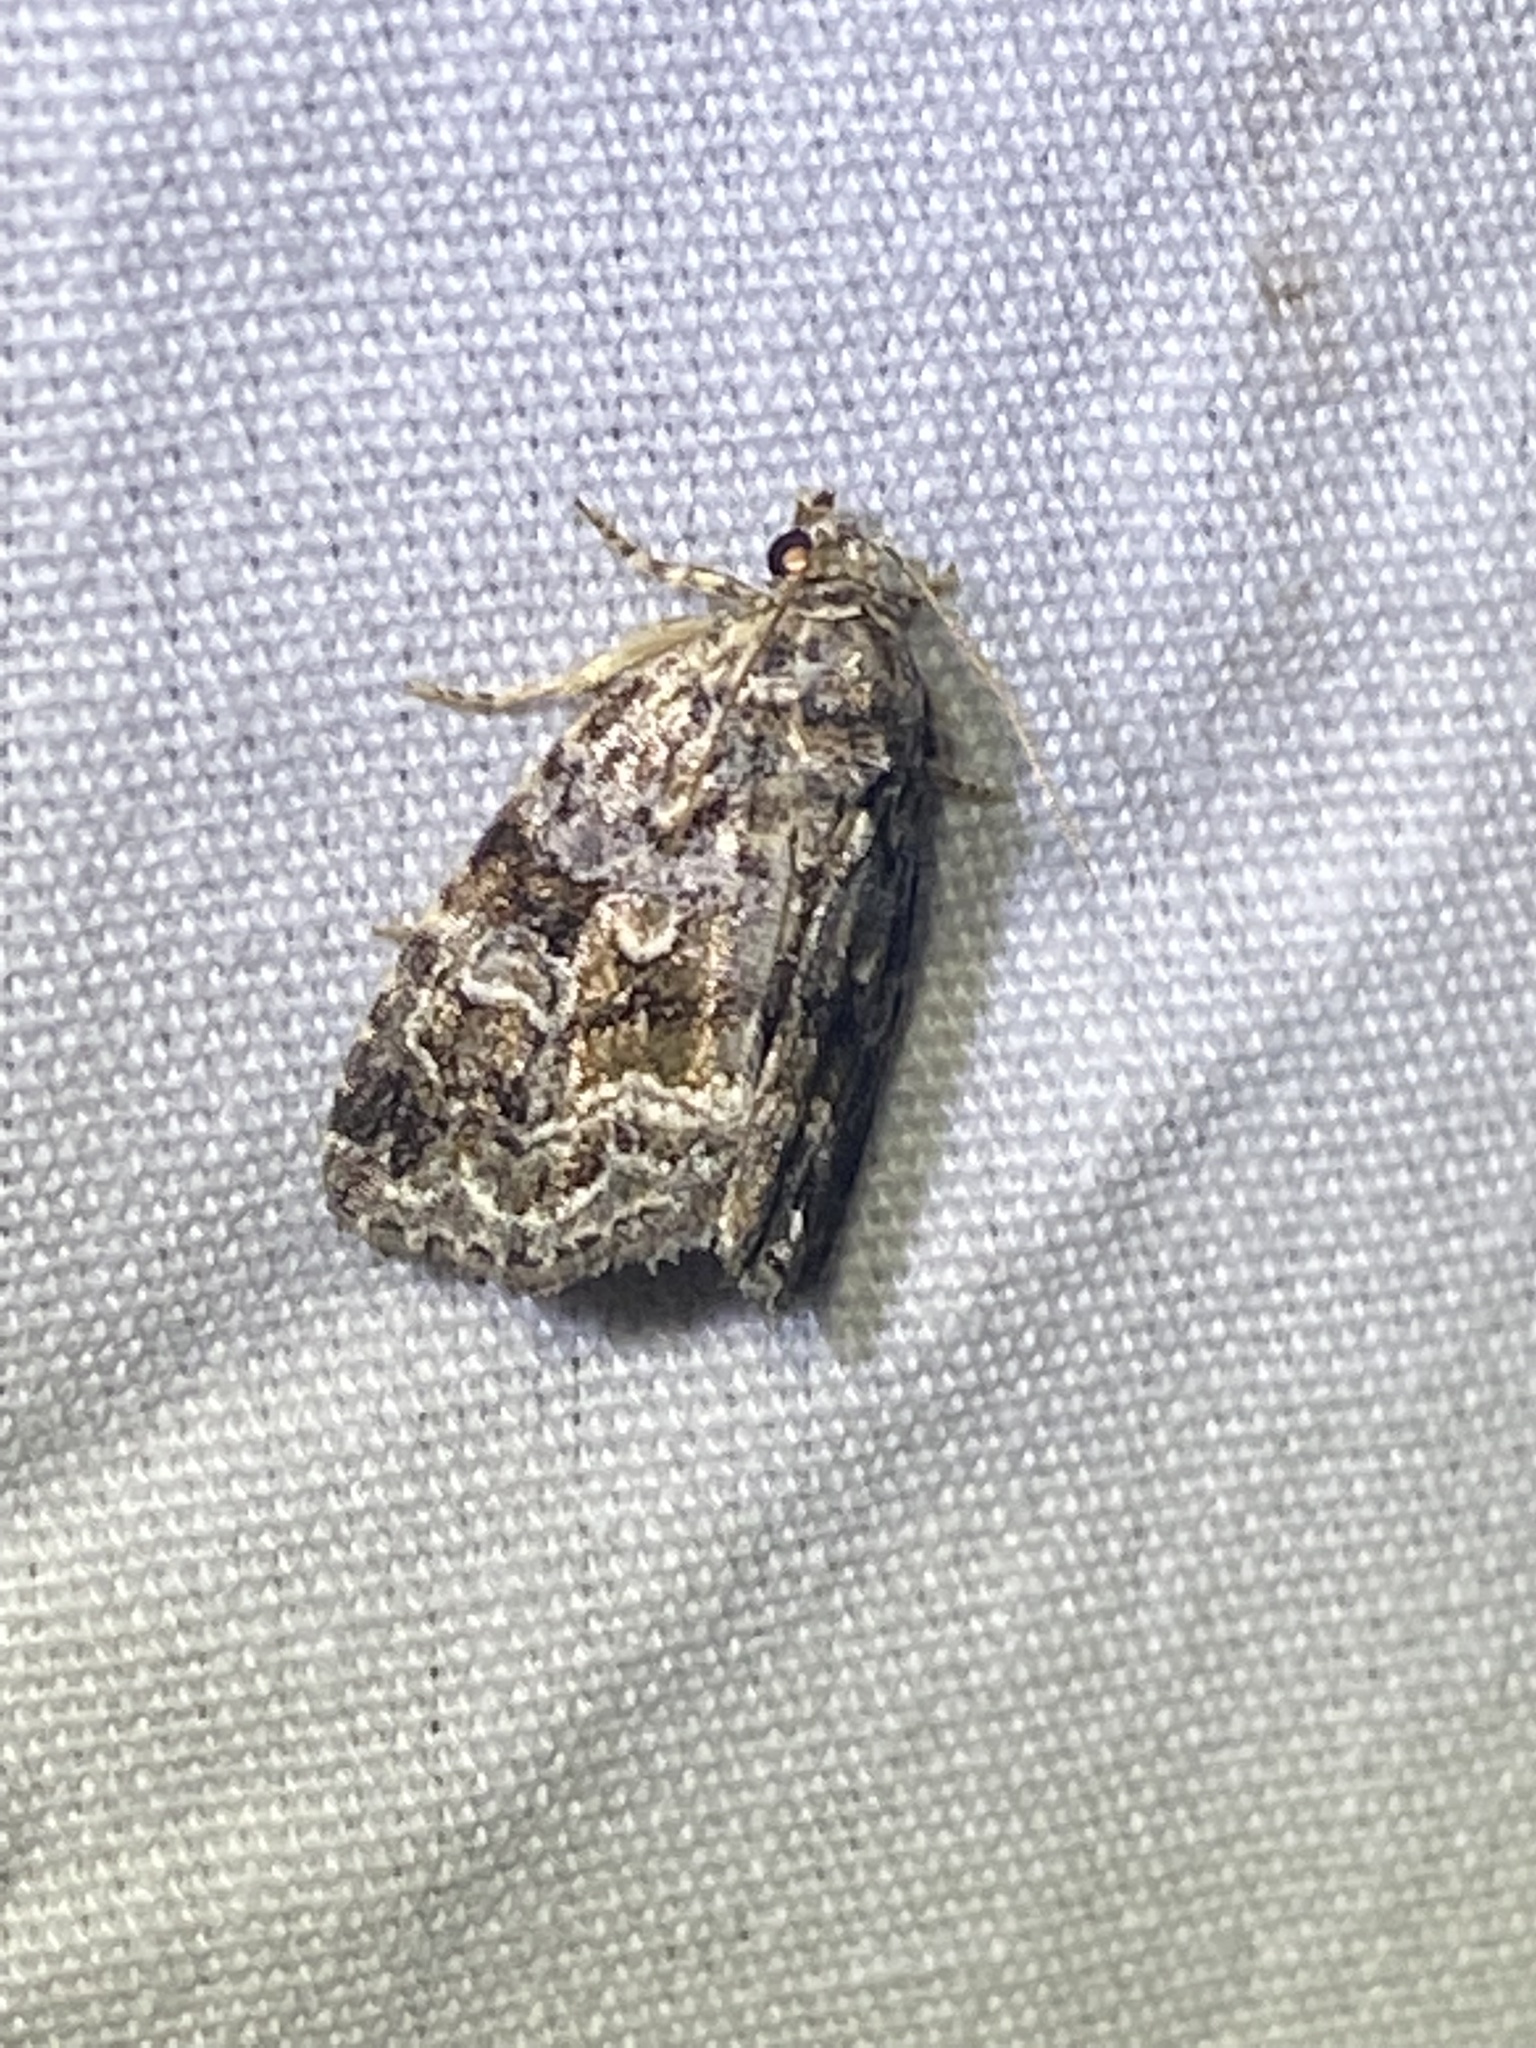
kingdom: Animalia
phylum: Arthropoda
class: Insecta
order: Lepidoptera
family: Noctuidae
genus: Protodeltote
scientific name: Protodeltote muscosula
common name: Large mossy glyph
